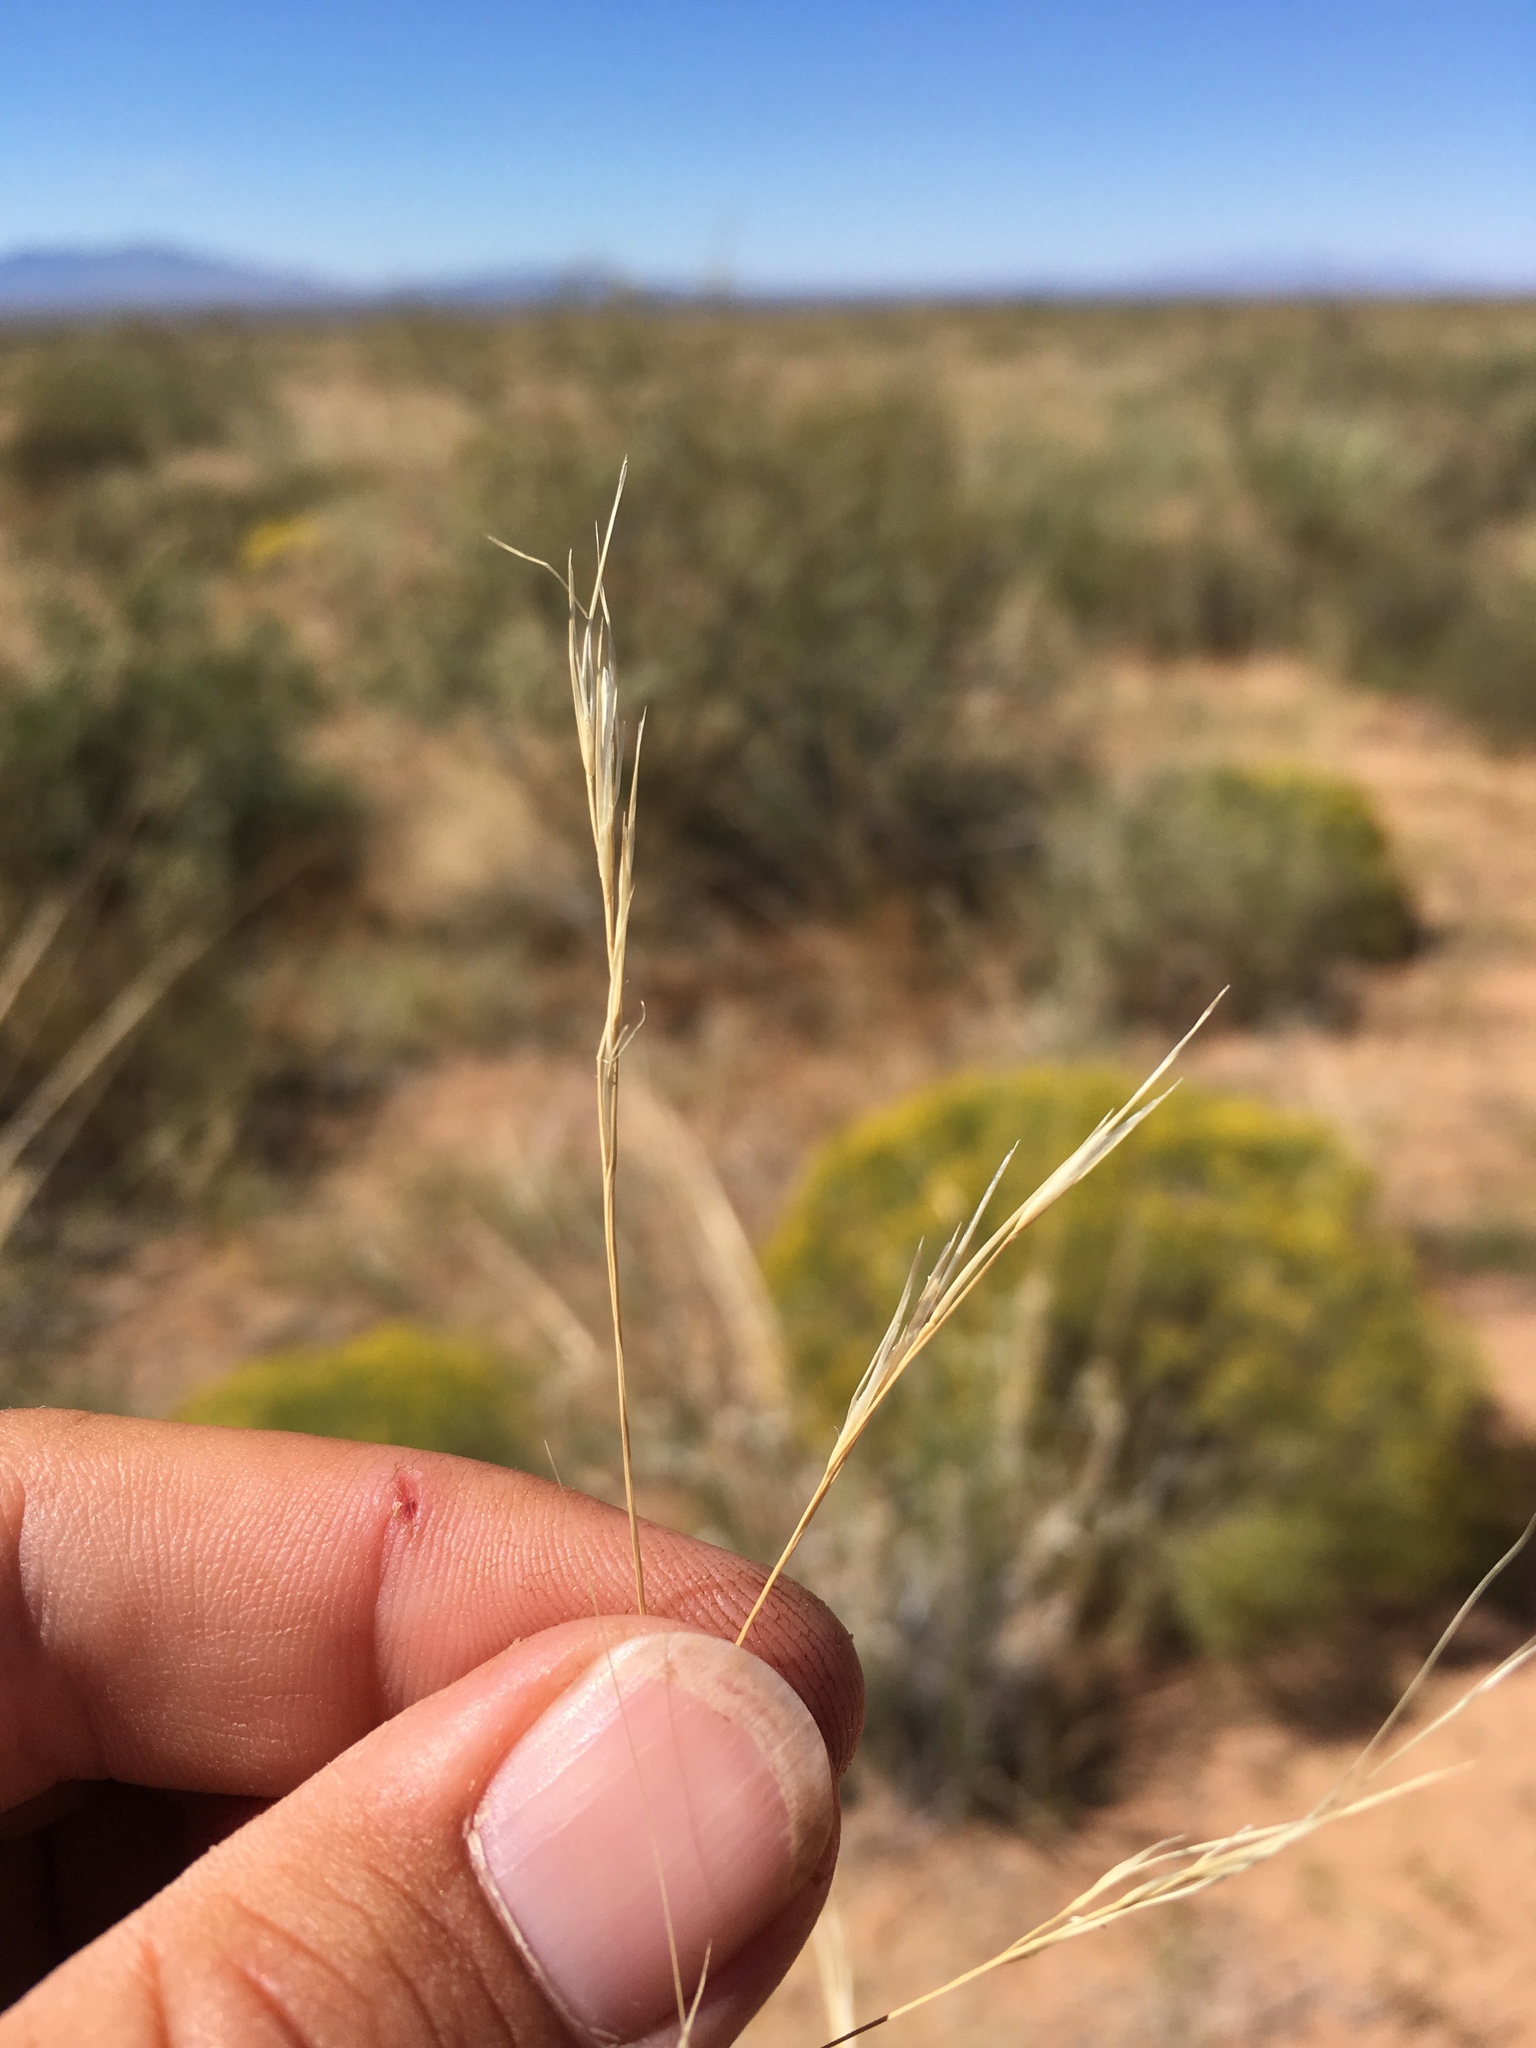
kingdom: Plantae
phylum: Tracheophyta
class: Liliopsida
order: Poales
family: Poaceae
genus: Aristida
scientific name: Aristida purpurea
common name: Purple threeawn
